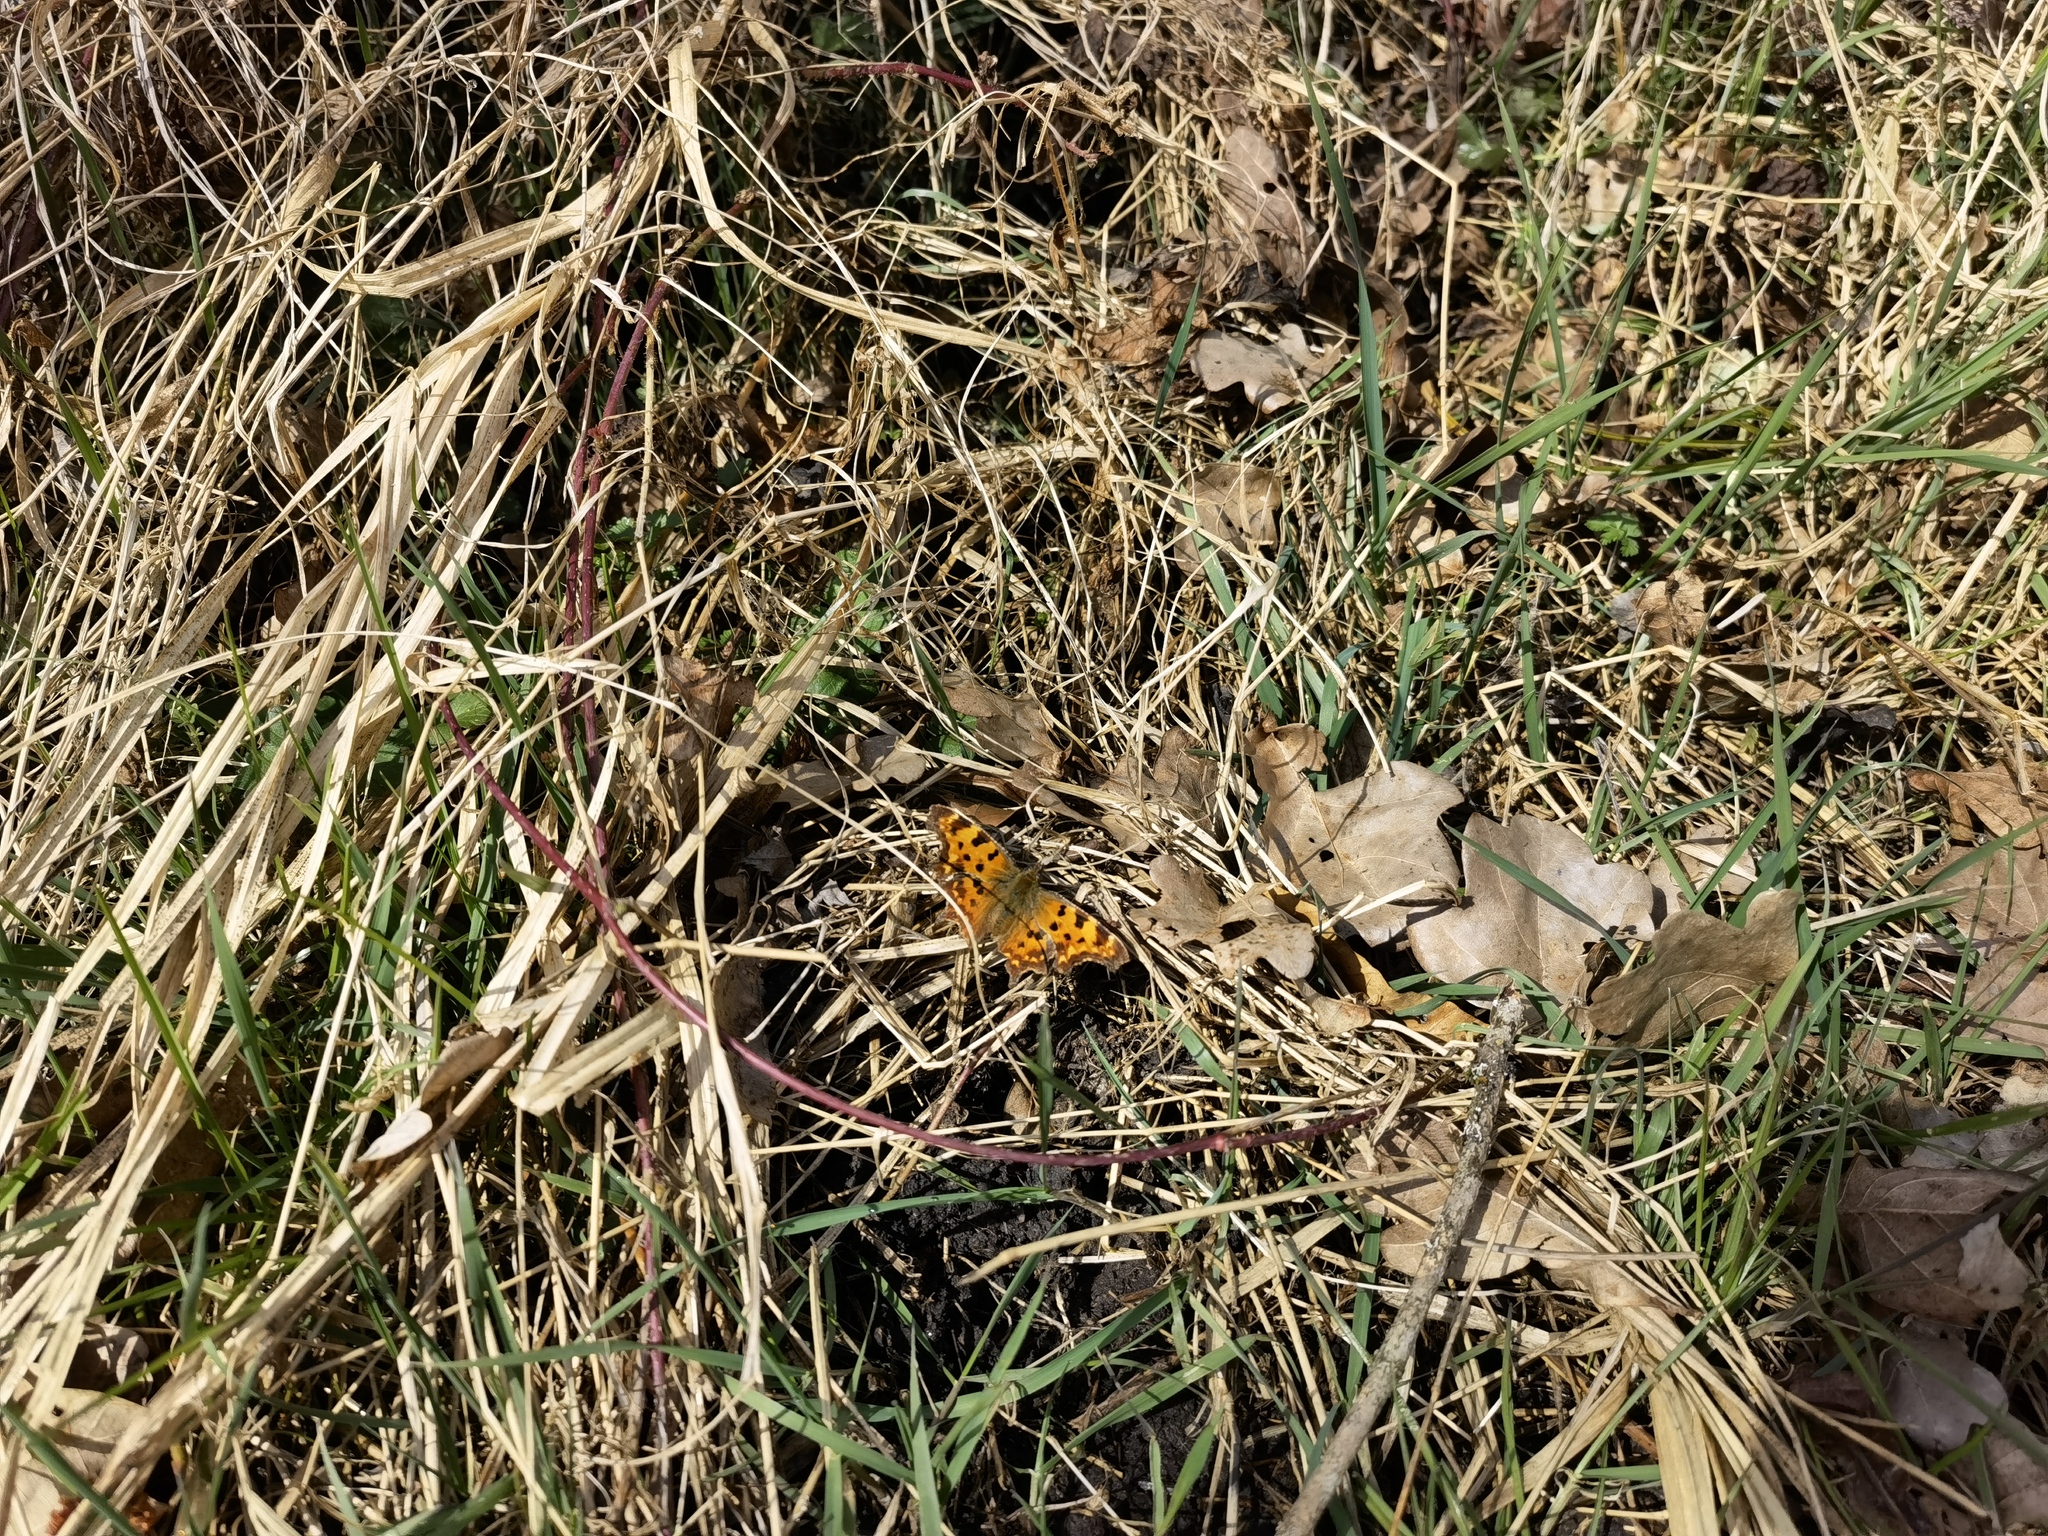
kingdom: Animalia
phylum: Arthropoda
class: Insecta
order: Lepidoptera
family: Nymphalidae
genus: Polygonia
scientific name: Polygonia c-album
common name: Comma
